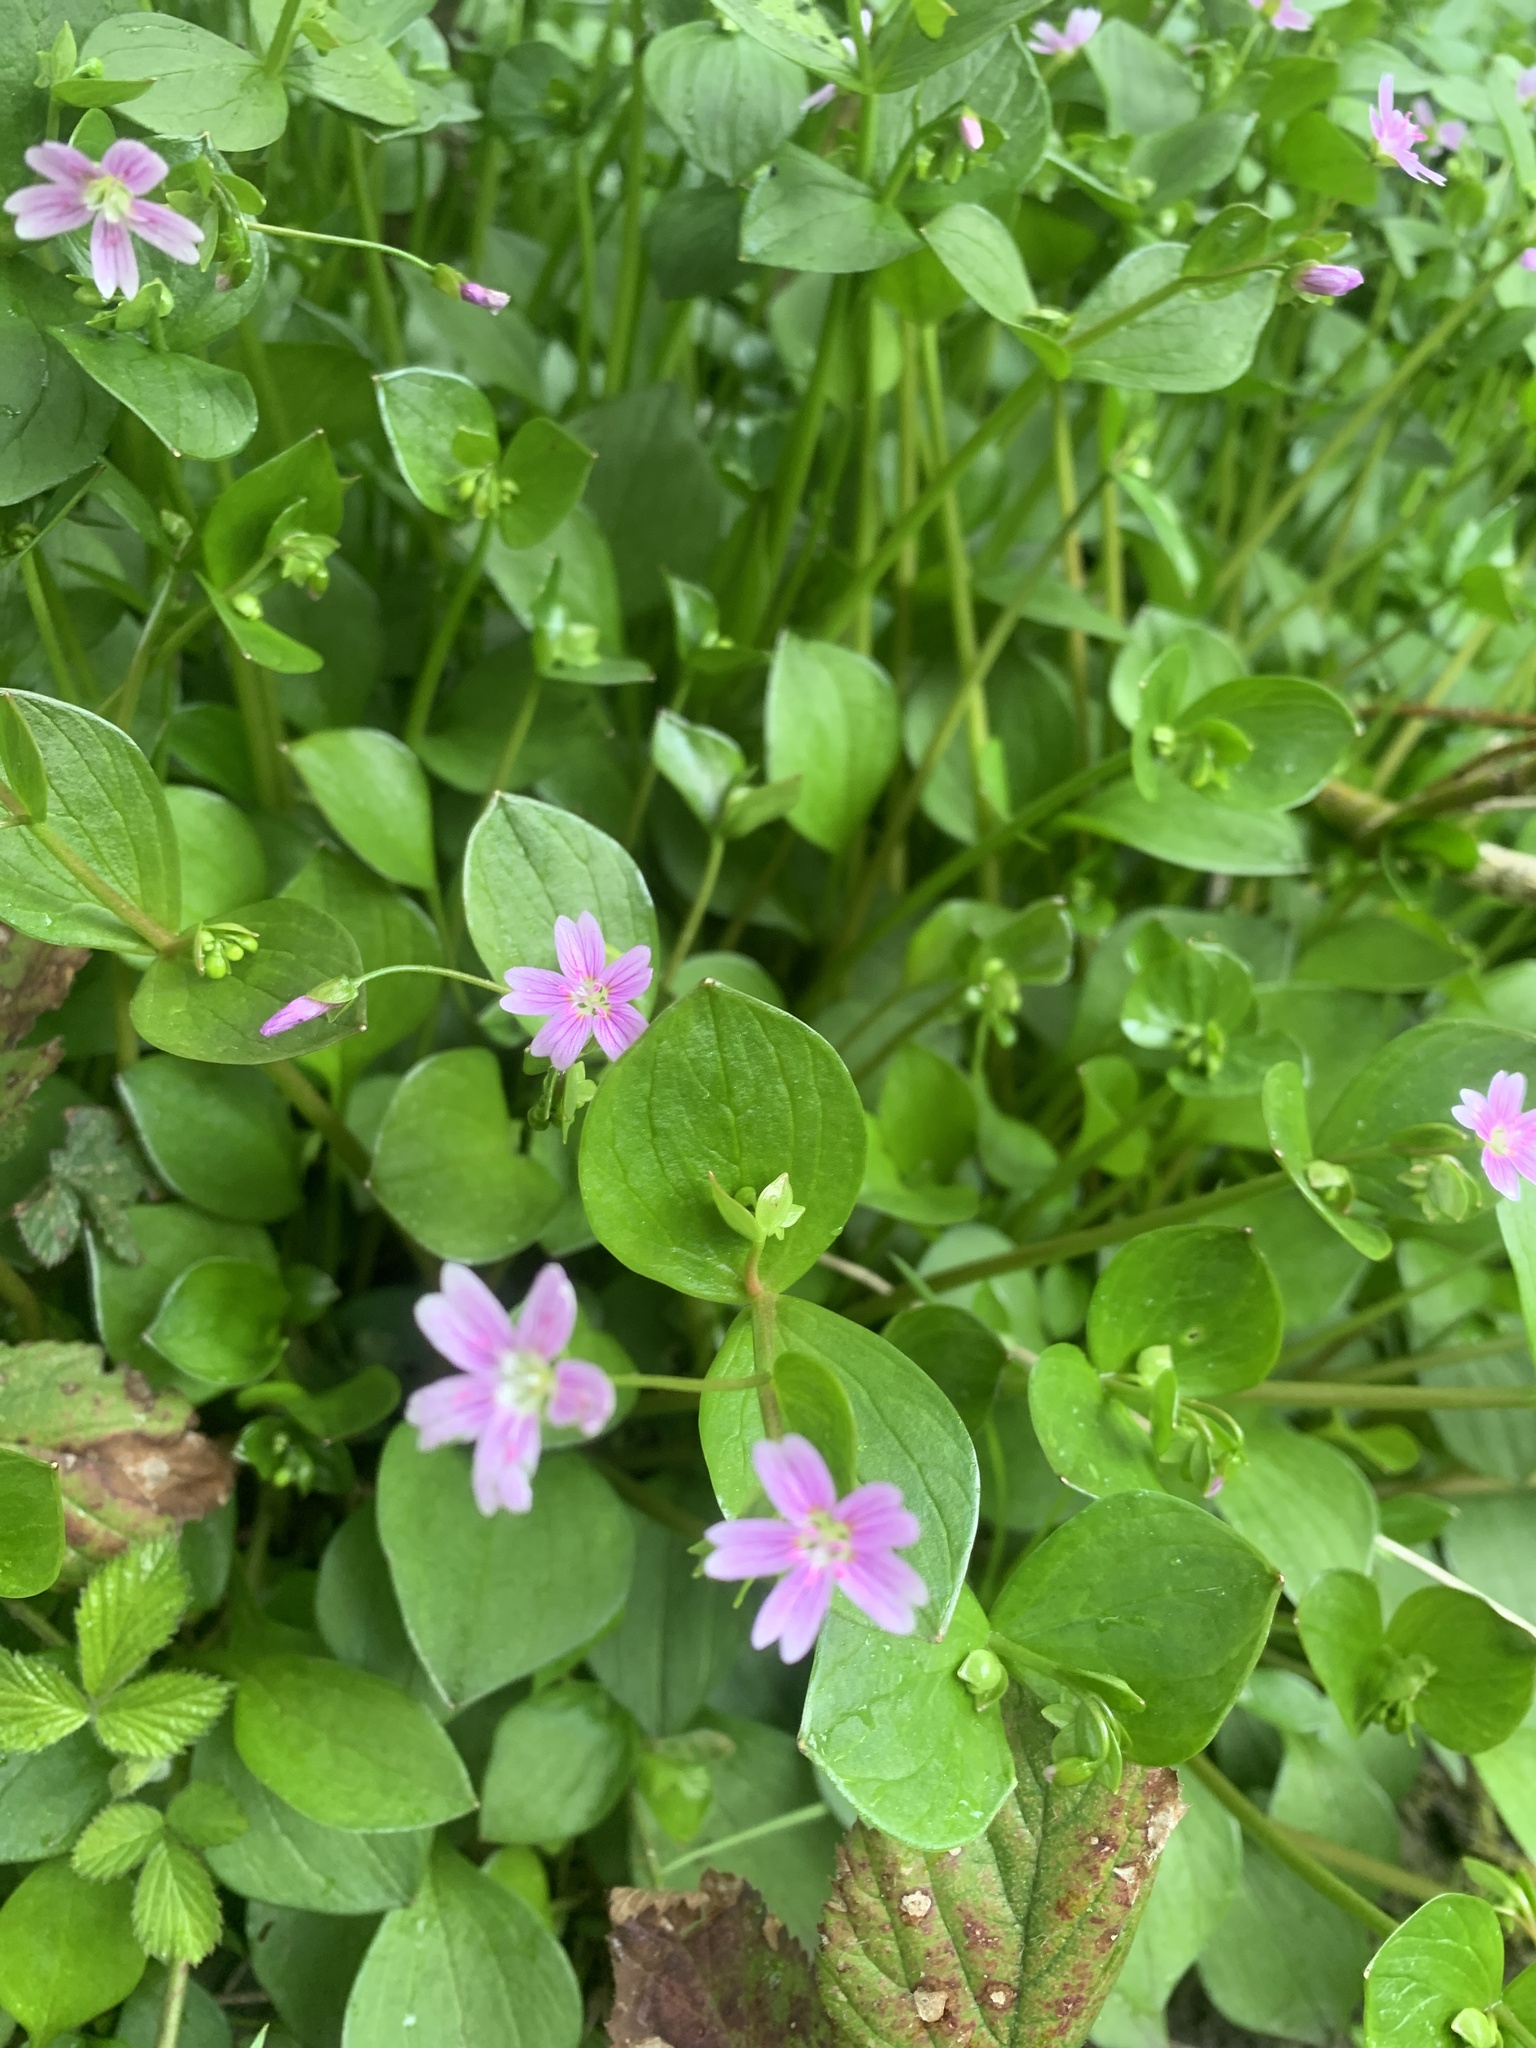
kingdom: Plantae
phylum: Tracheophyta
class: Magnoliopsida
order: Caryophyllales
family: Montiaceae
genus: Claytonia
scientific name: Claytonia sibirica
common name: Pink purslane
